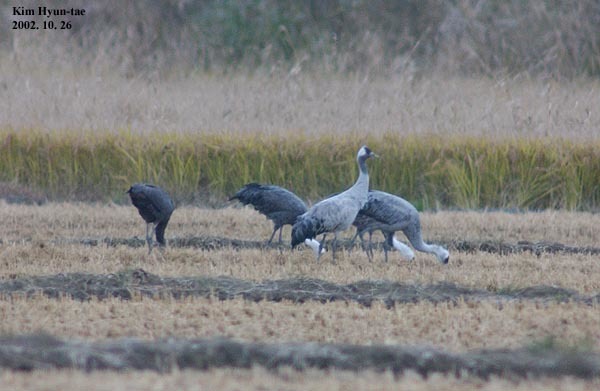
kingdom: Animalia
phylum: Chordata
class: Aves
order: Gruiformes
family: Gruidae
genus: Grus
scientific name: Grus grus
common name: Common crane
